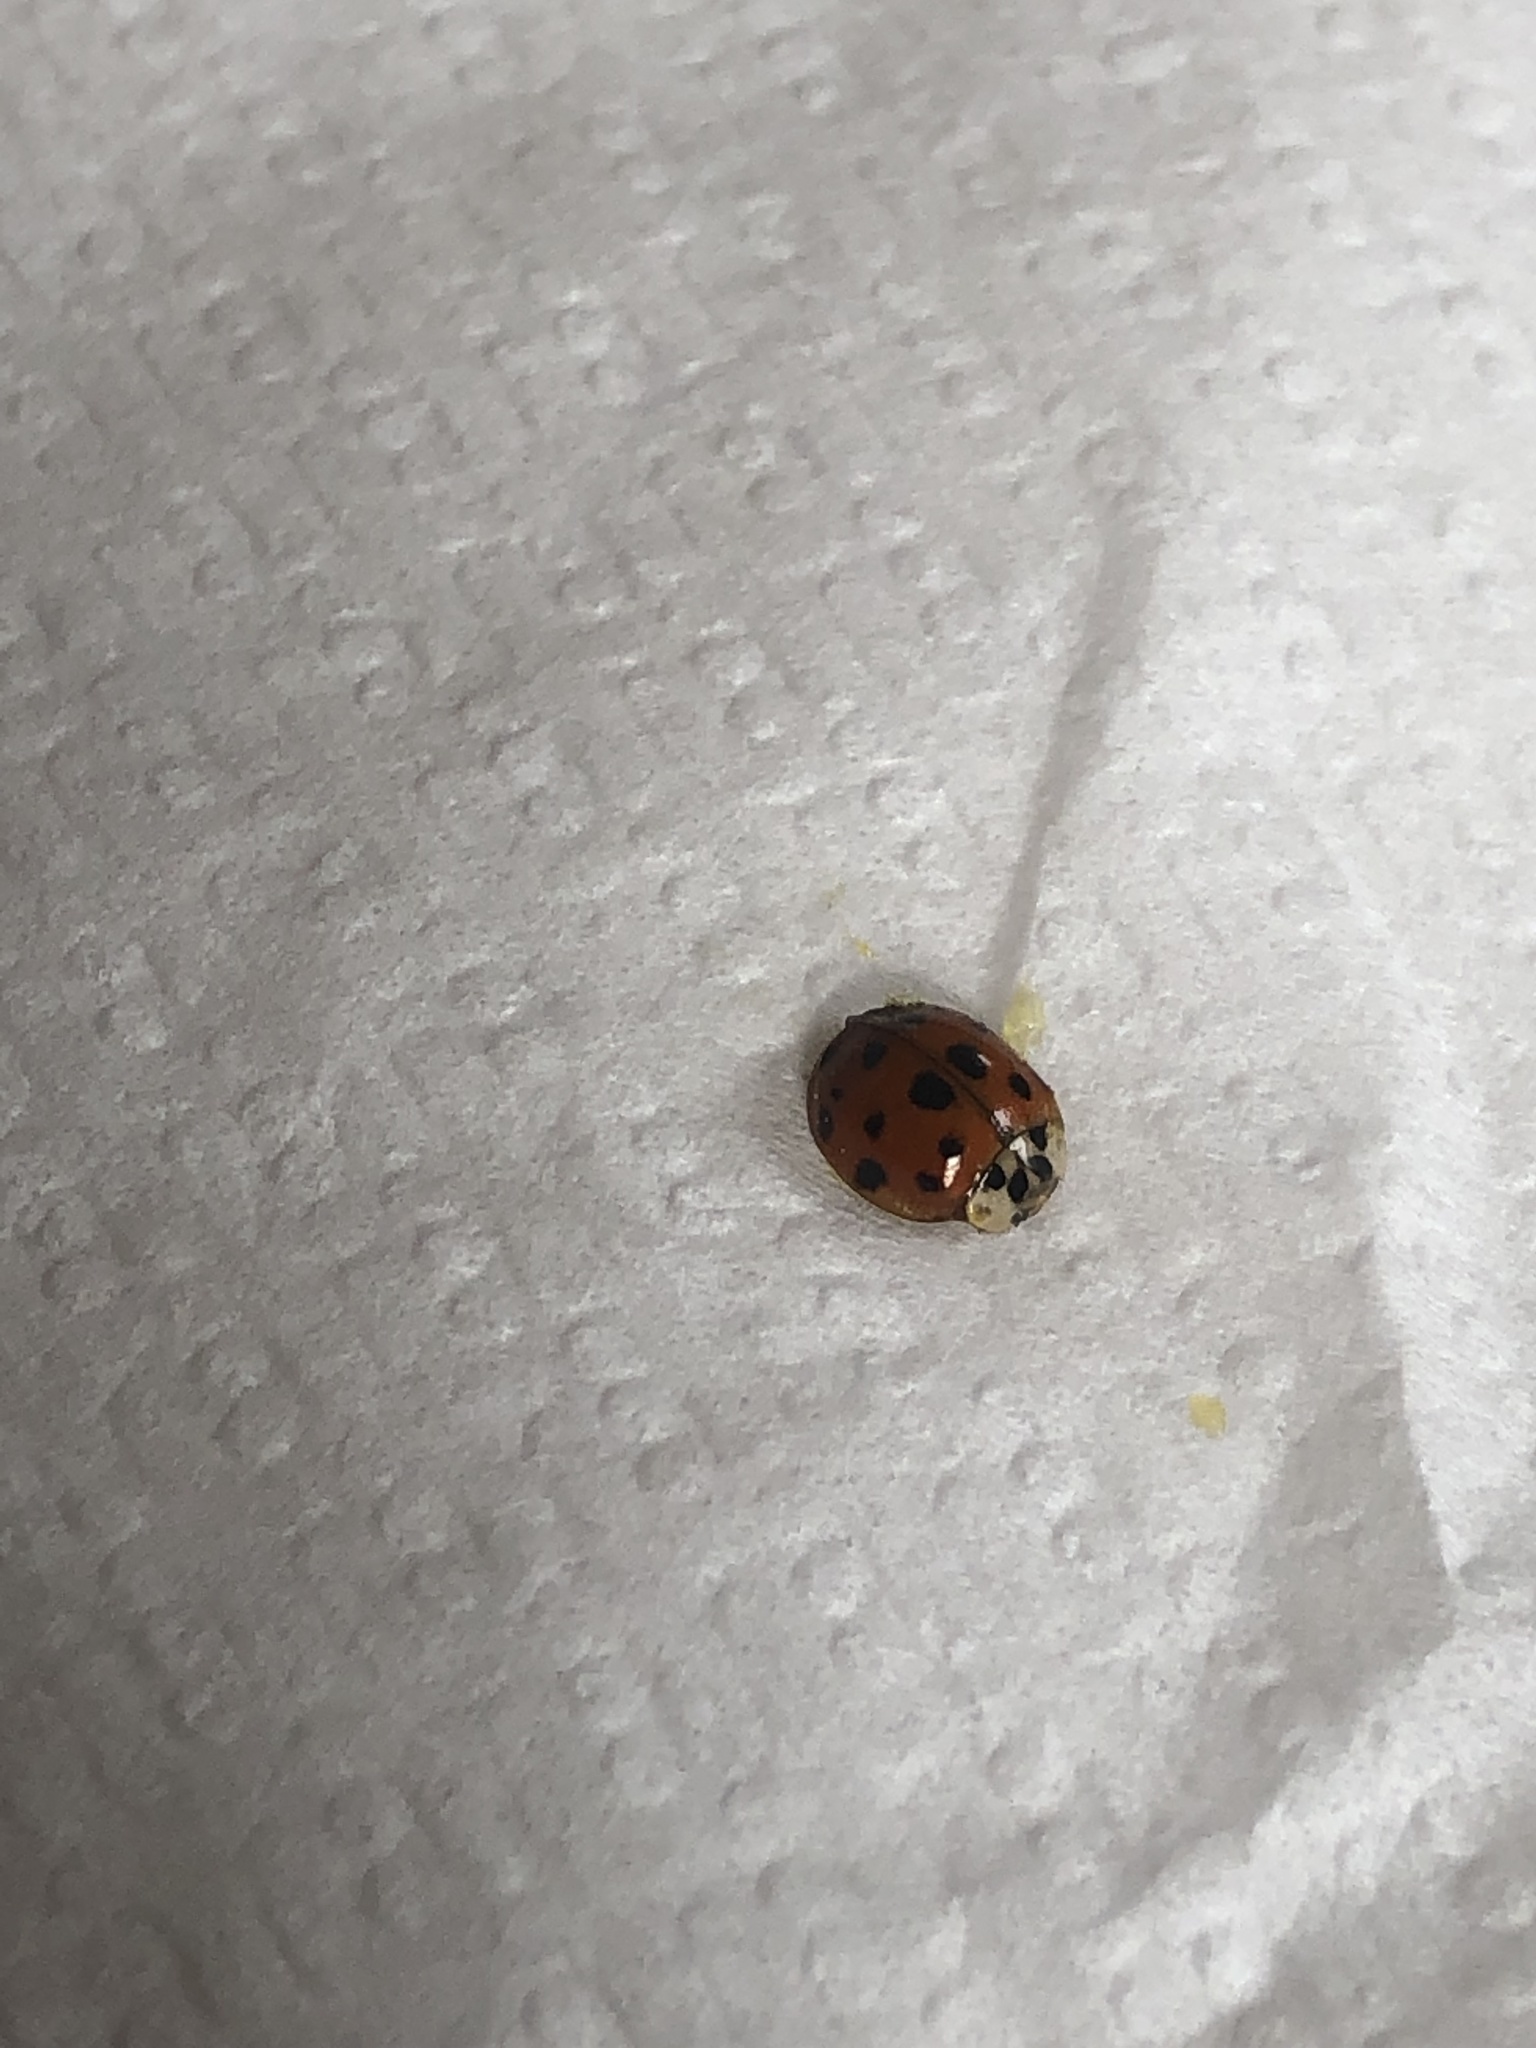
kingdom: Animalia
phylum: Arthropoda
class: Insecta
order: Coleoptera
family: Coccinellidae
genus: Harmonia
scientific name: Harmonia axyridis
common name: Harlequin ladybird
